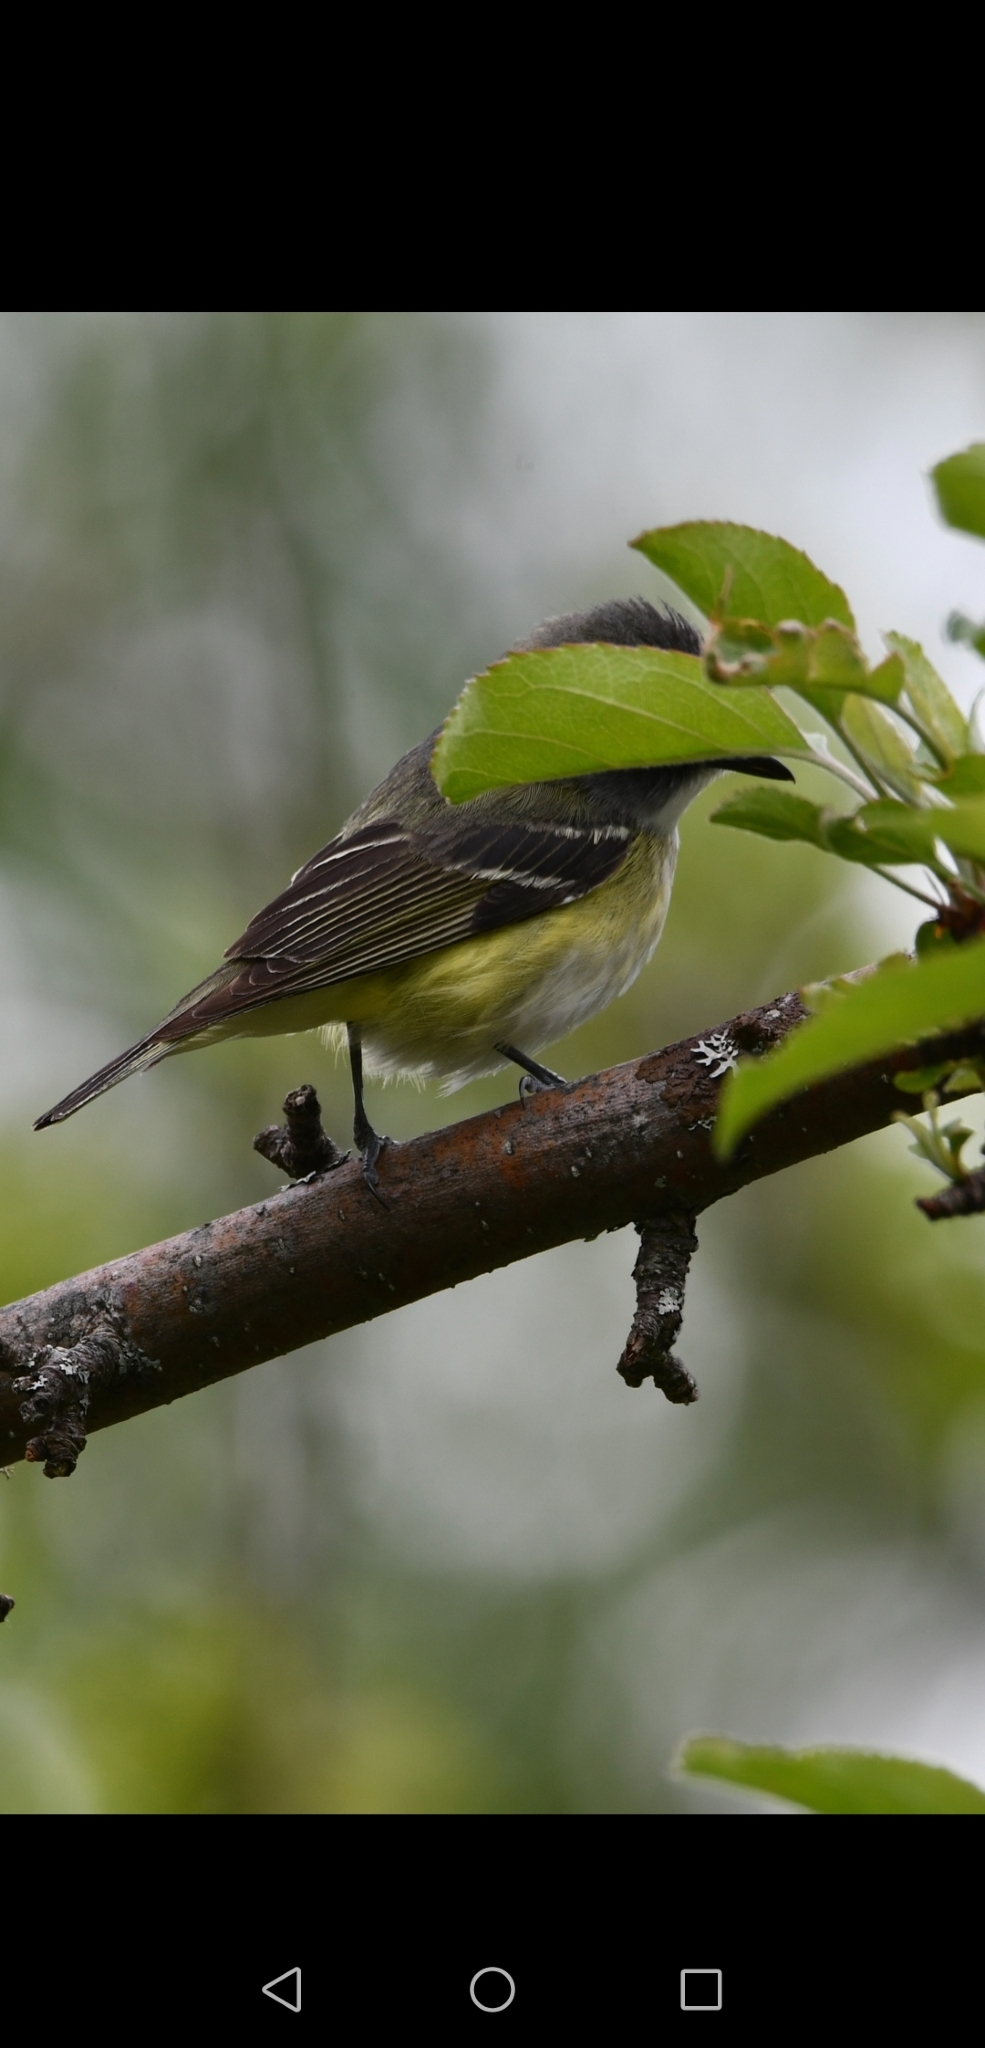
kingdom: Animalia
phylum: Chordata
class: Aves
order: Passeriformes
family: Vireonidae
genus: Vireo
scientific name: Vireo solitarius
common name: Blue-headed vireo
